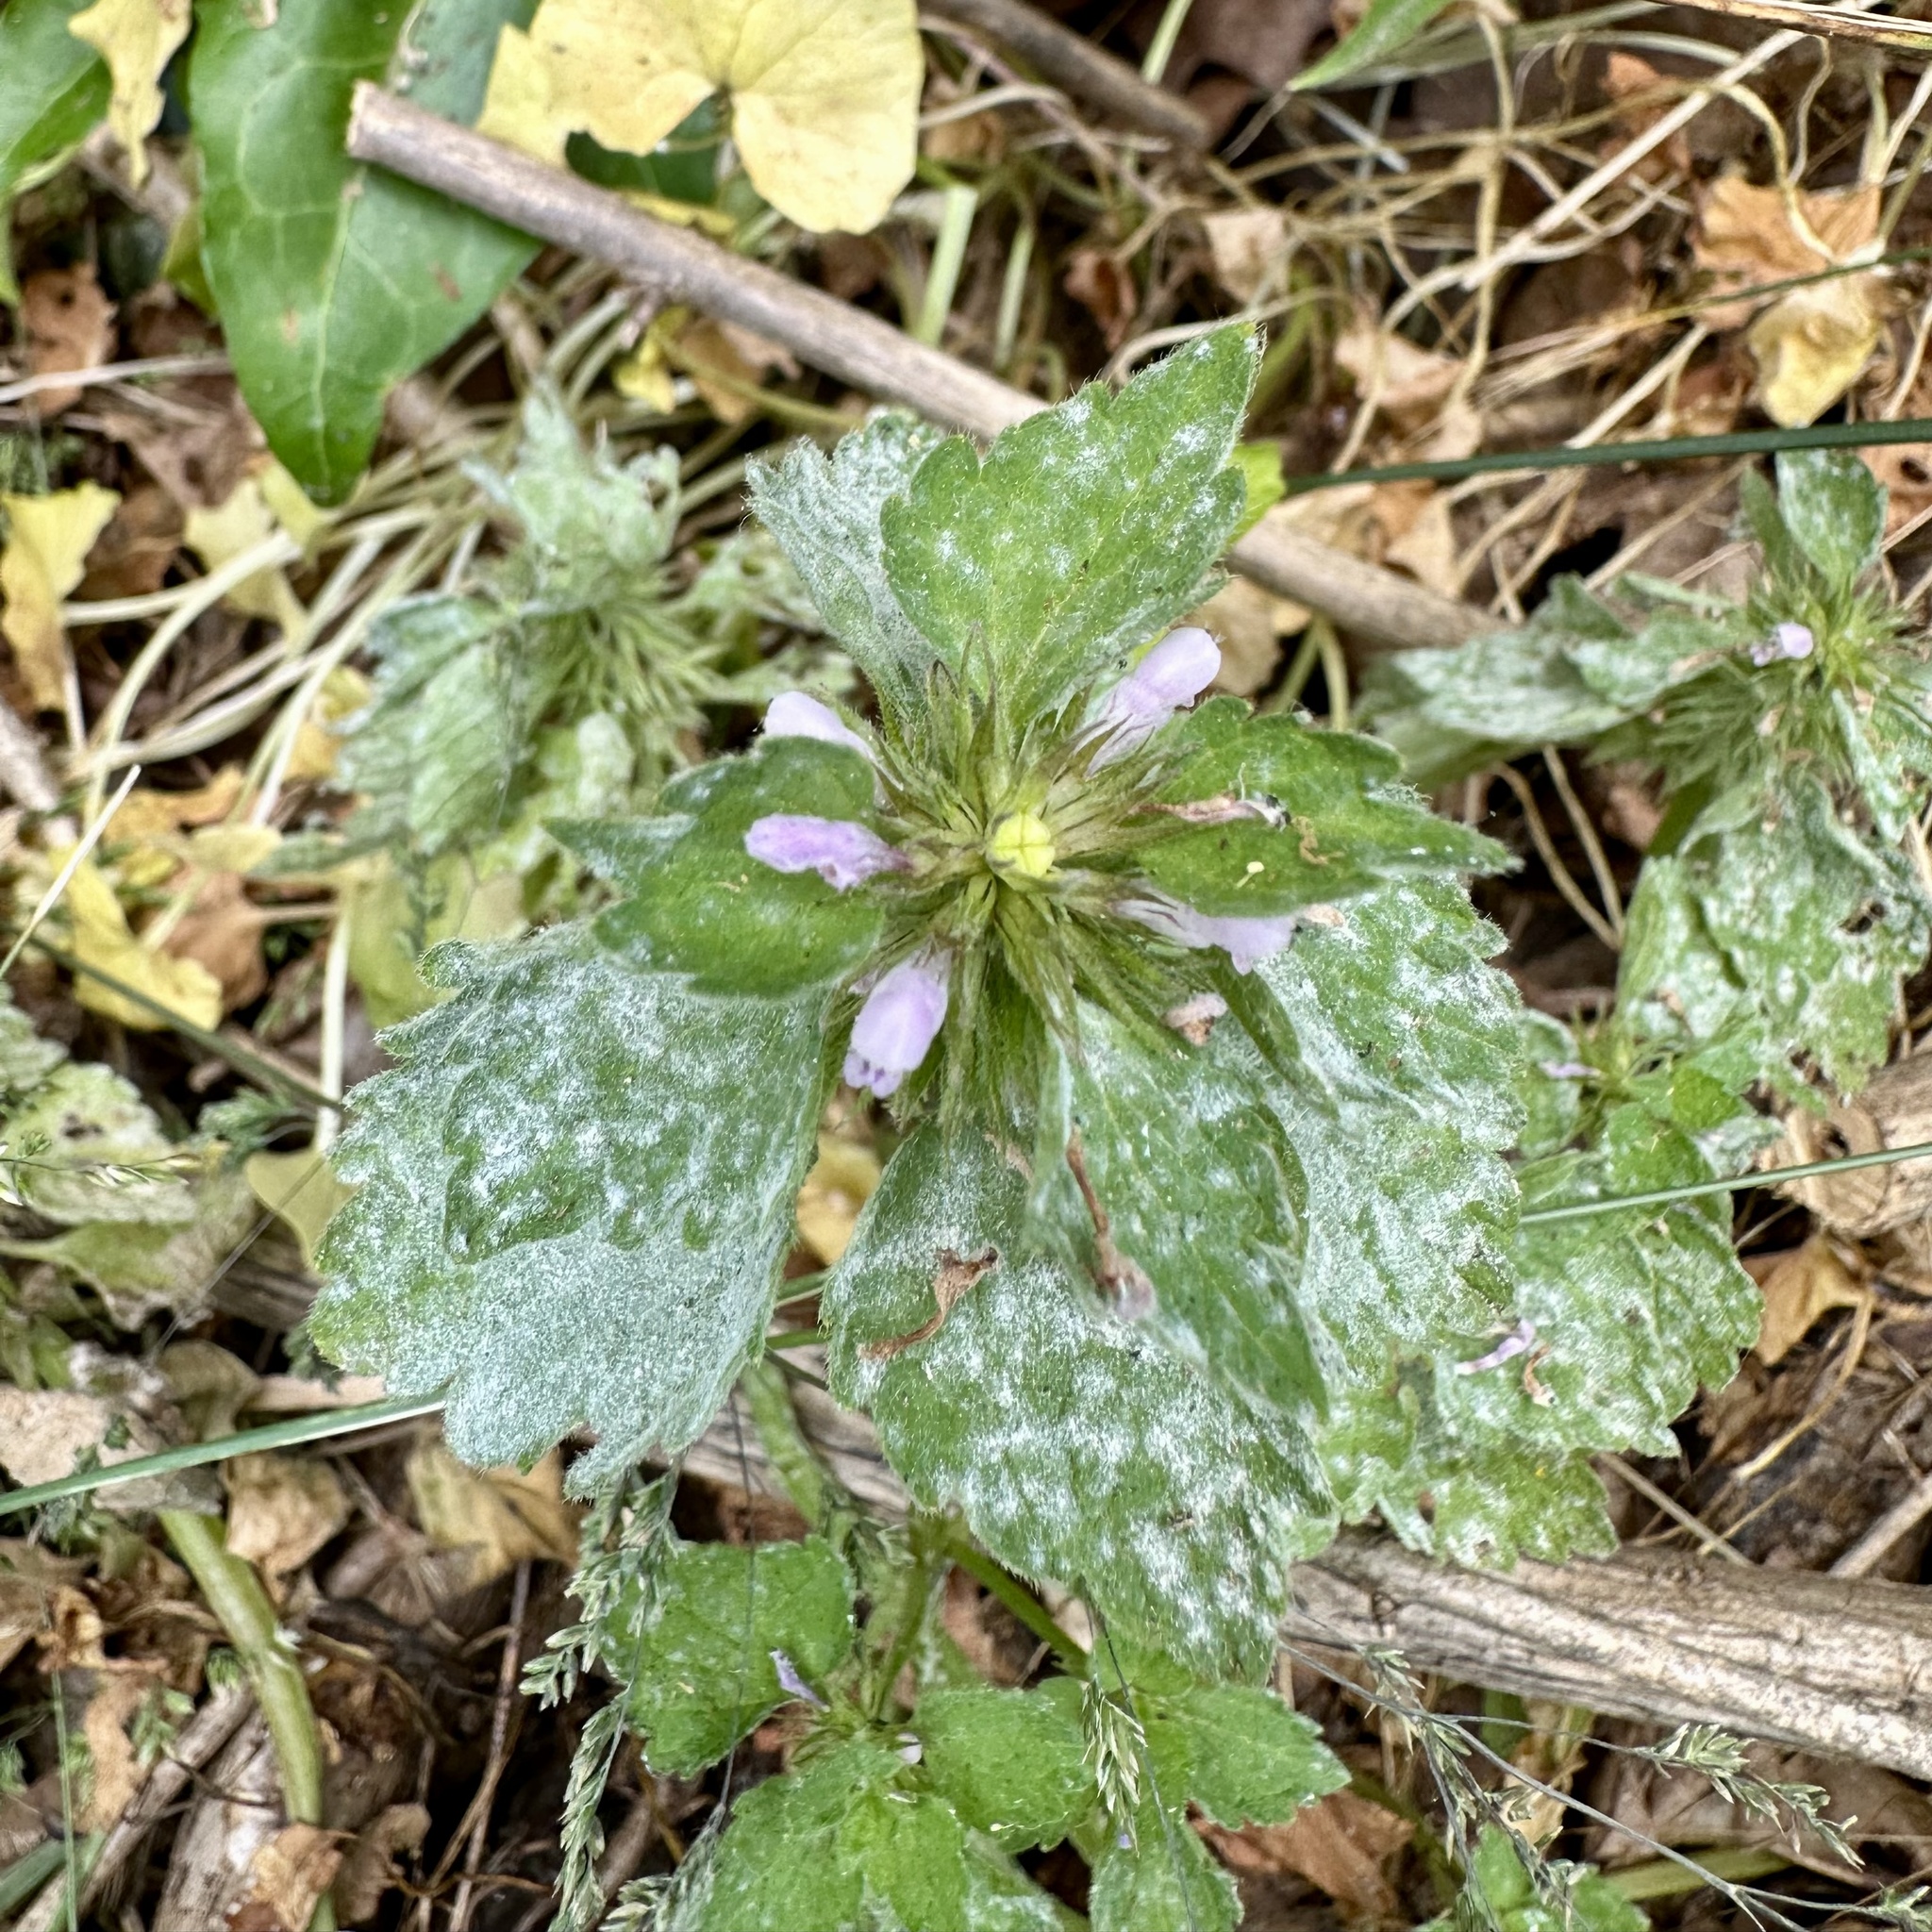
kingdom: Plantae
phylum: Tracheophyta
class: Magnoliopsida
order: Lamiales
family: Lamiaceae
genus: Lamium
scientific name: Lamium purpureum
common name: Red dead-nettle
